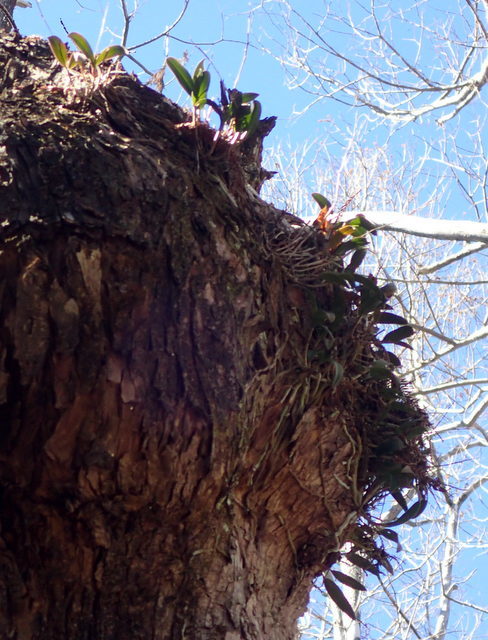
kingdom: Plantae
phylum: Tracheophyta
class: Liliopsida
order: Asparagales
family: Orchidaceae
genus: Epidendrum
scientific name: Epidendrum conopseum
